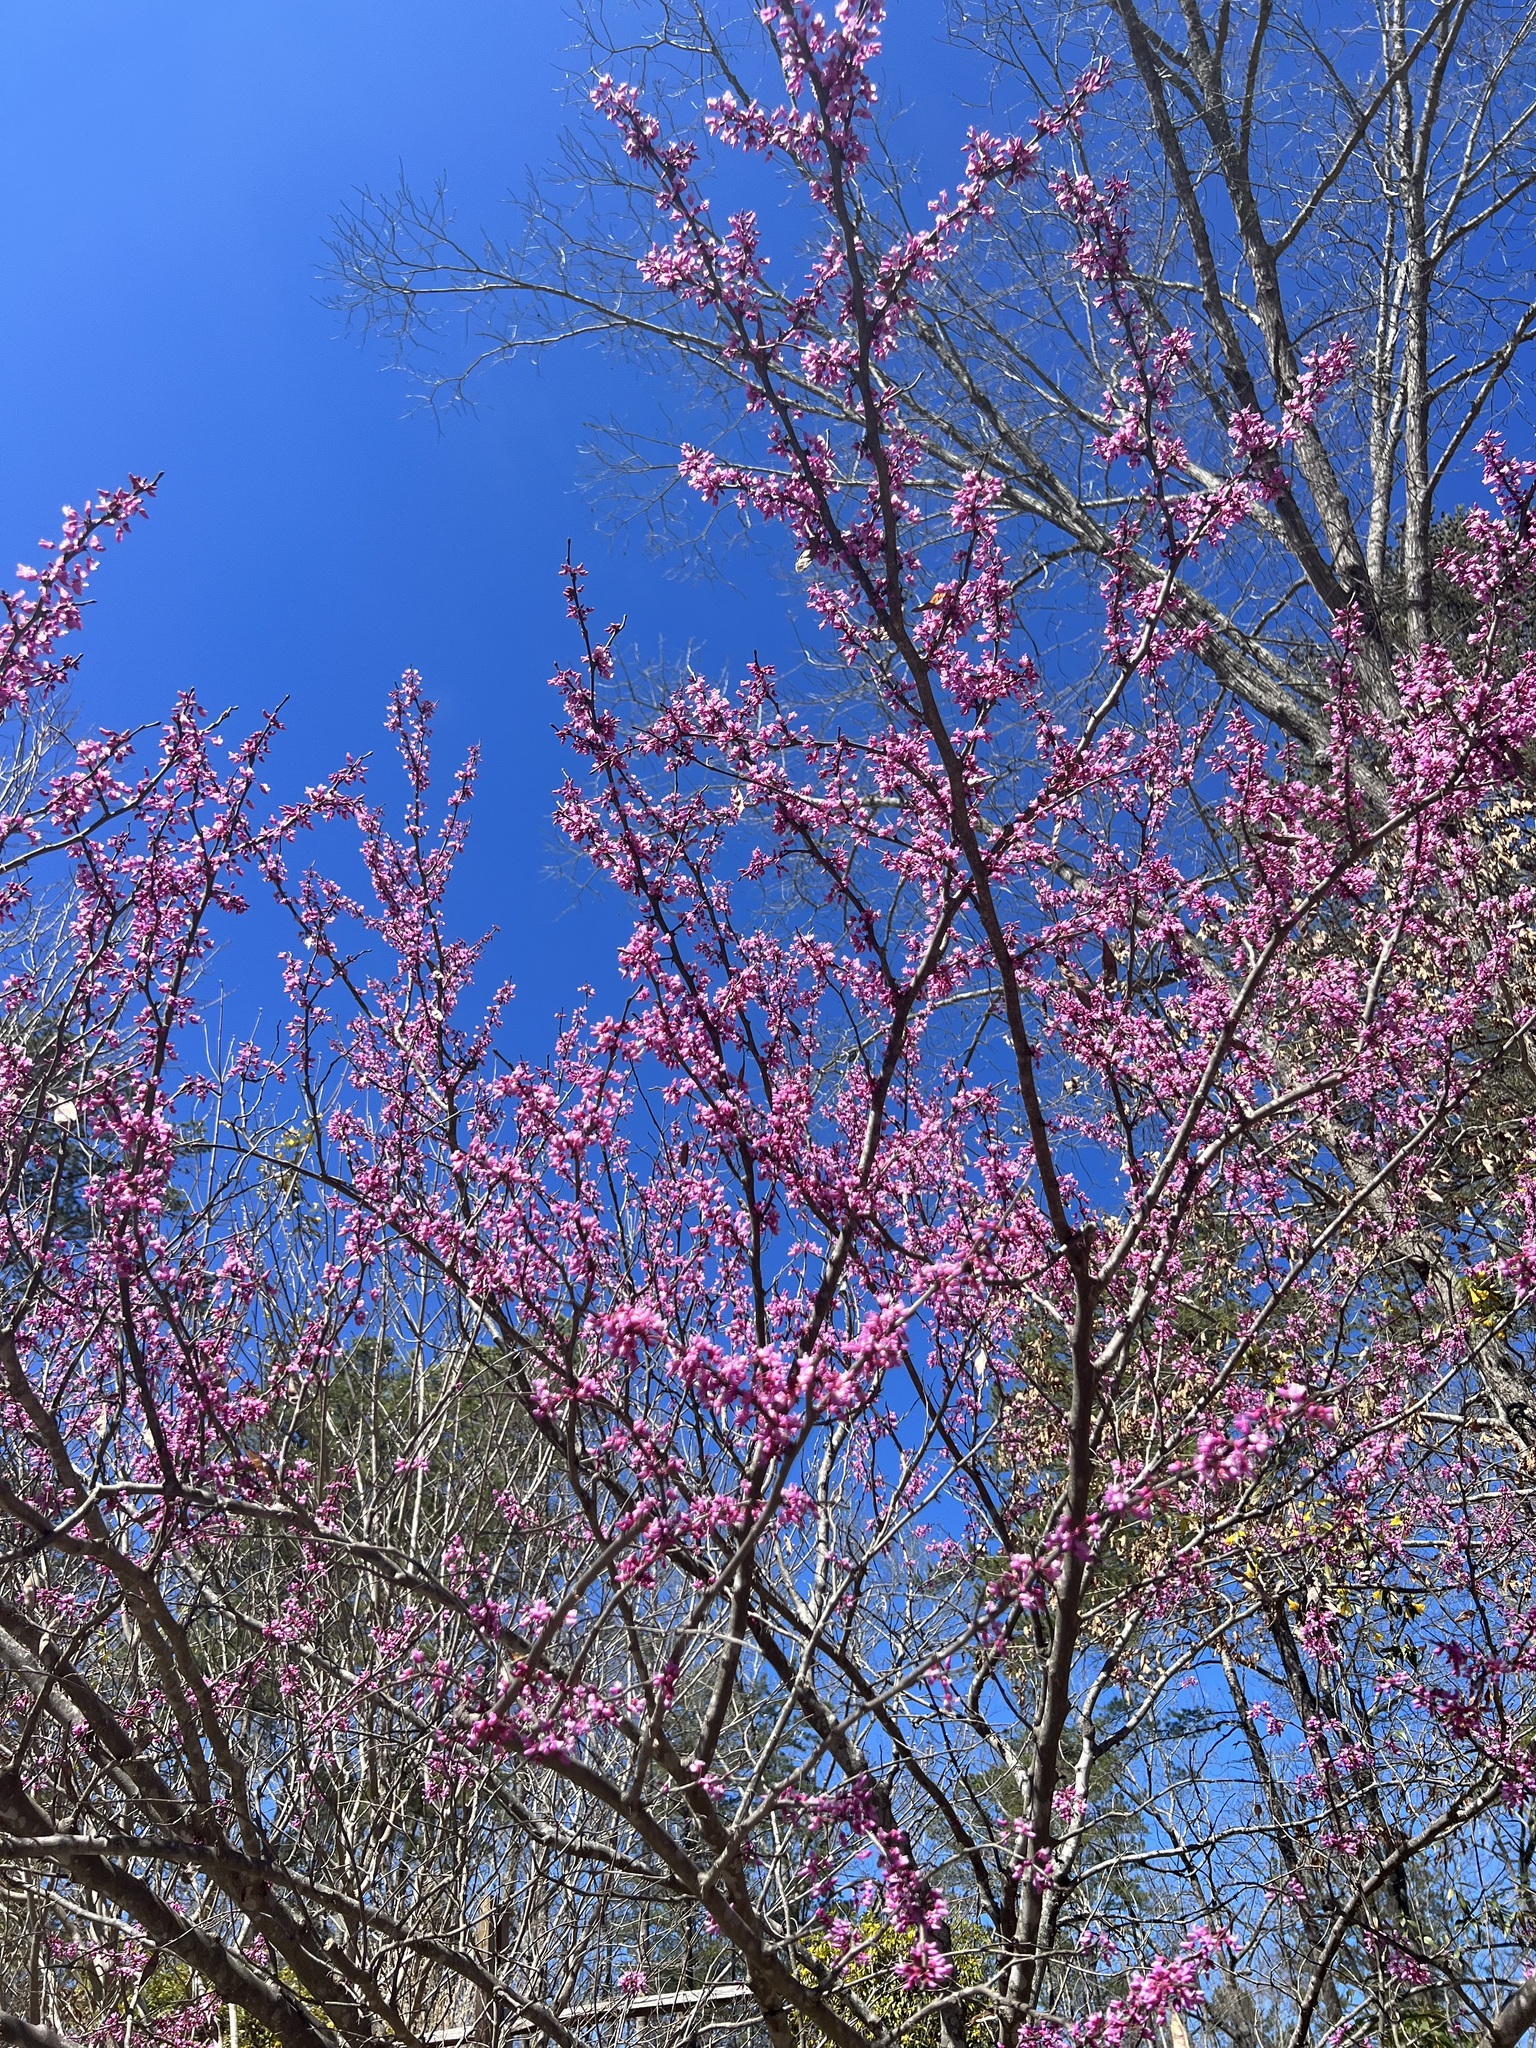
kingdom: Plantae
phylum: Tracheophyta
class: Magnoliopsida
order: Fabales
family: Fabaceae
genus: Cercis
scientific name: Cercis canadensis
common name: Eastern redbud
